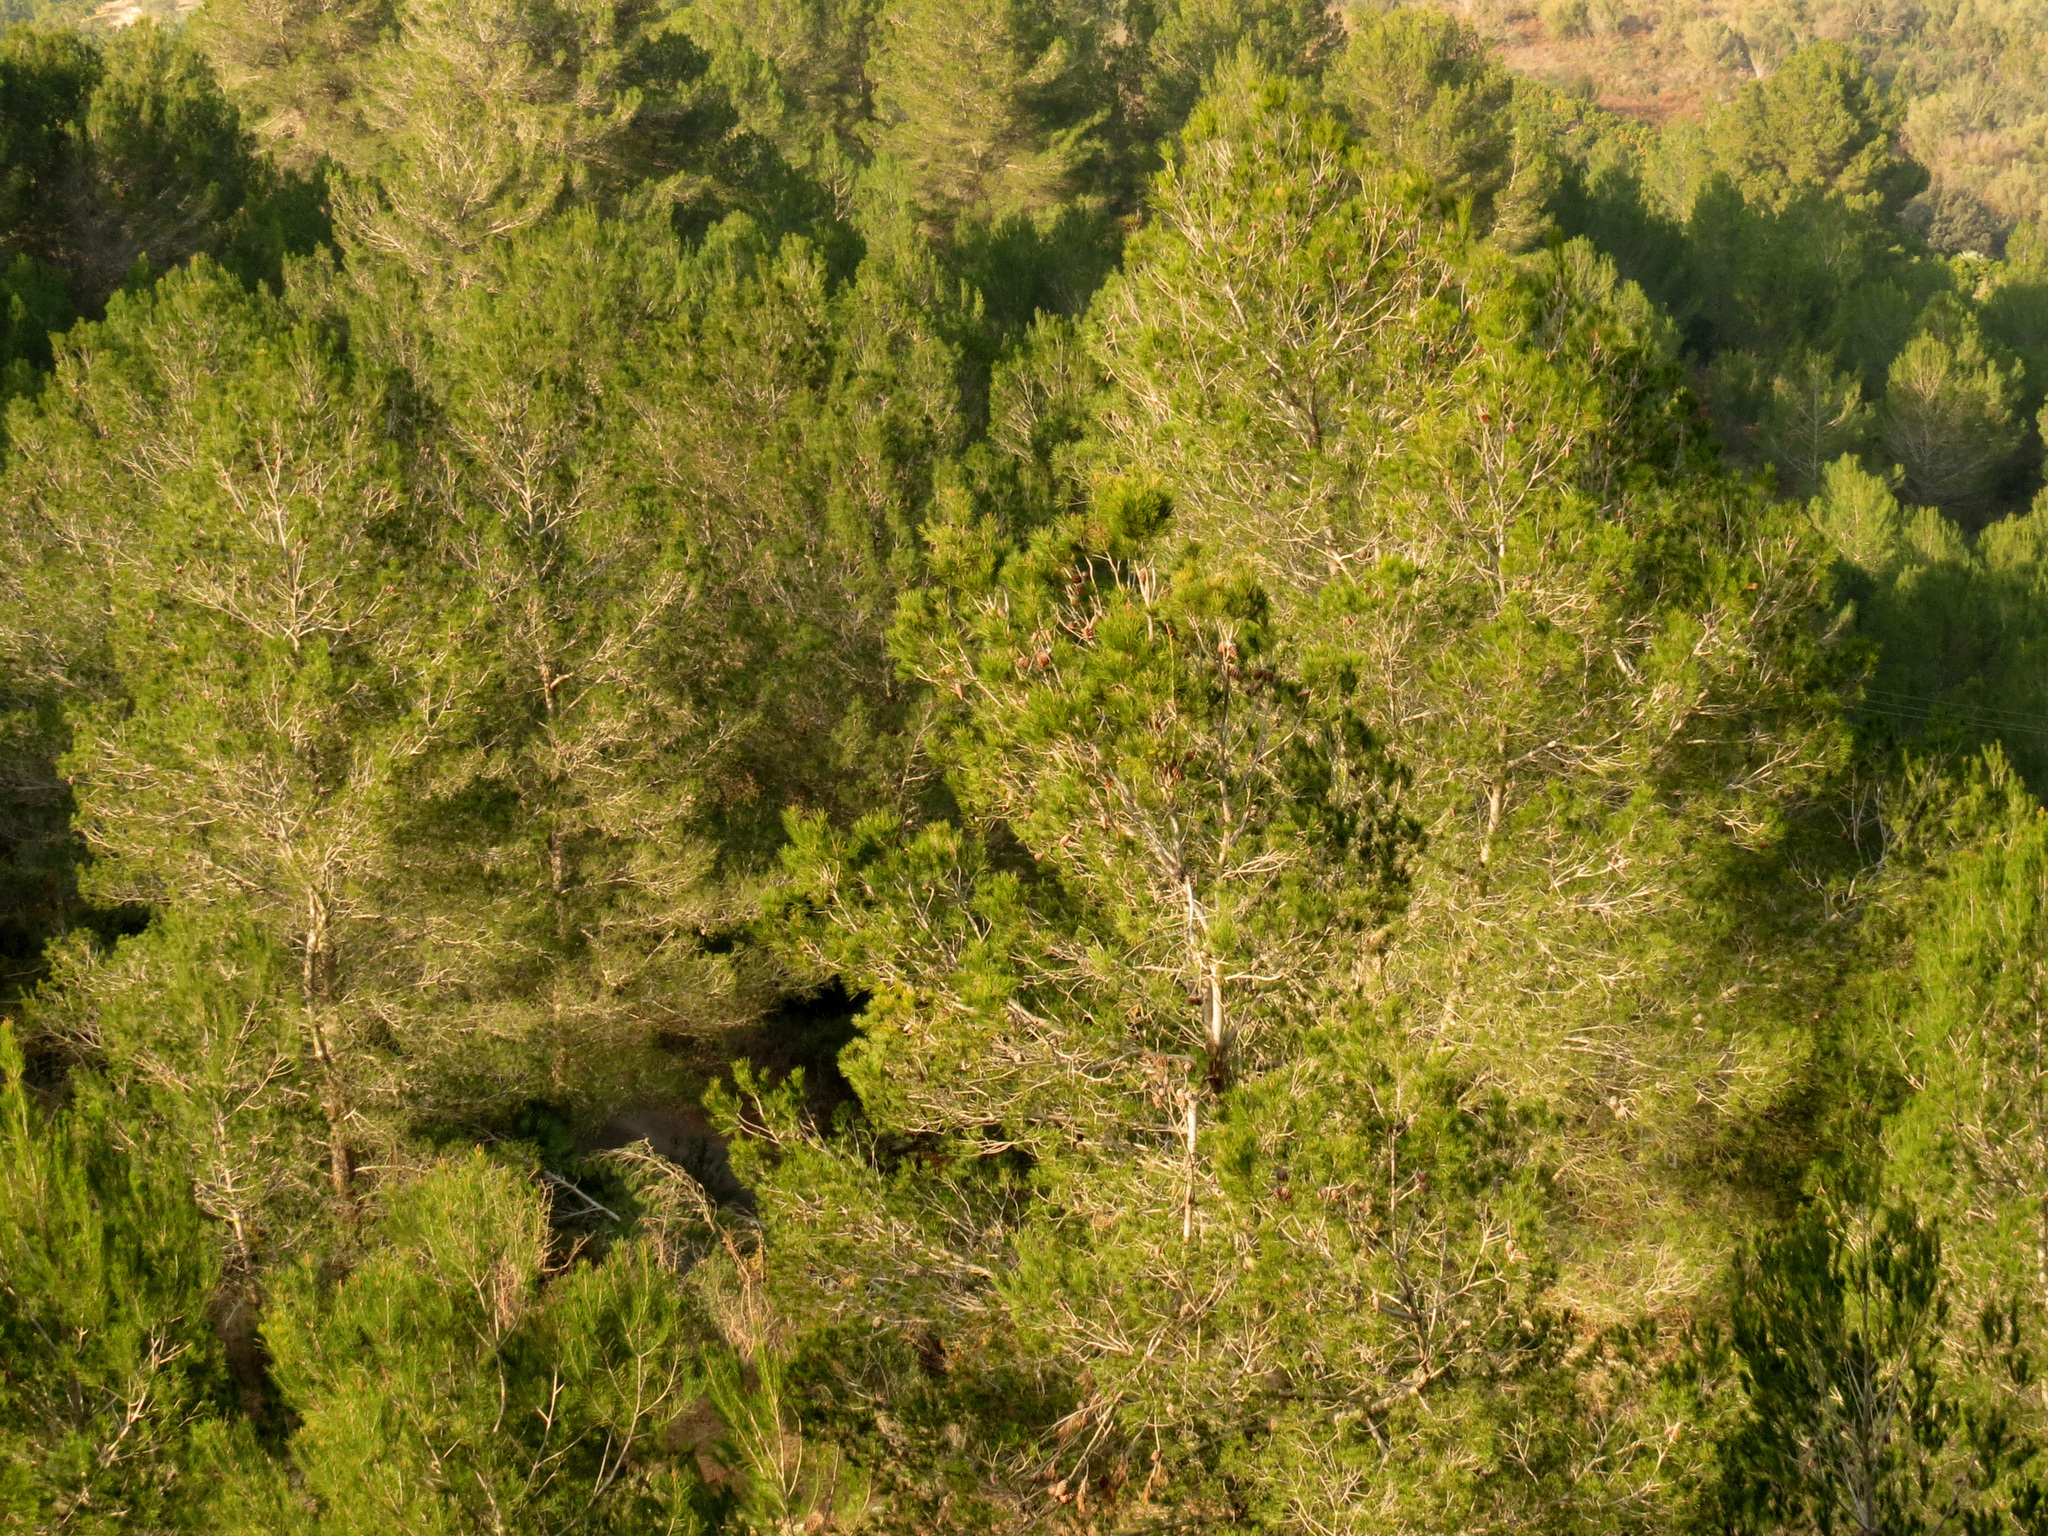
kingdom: Plantae
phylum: Tracheophyta
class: Pinopsida
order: Pinales
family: Pinaceae
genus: Pinus
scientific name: Pinus halepensis
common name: Aleppo pine
